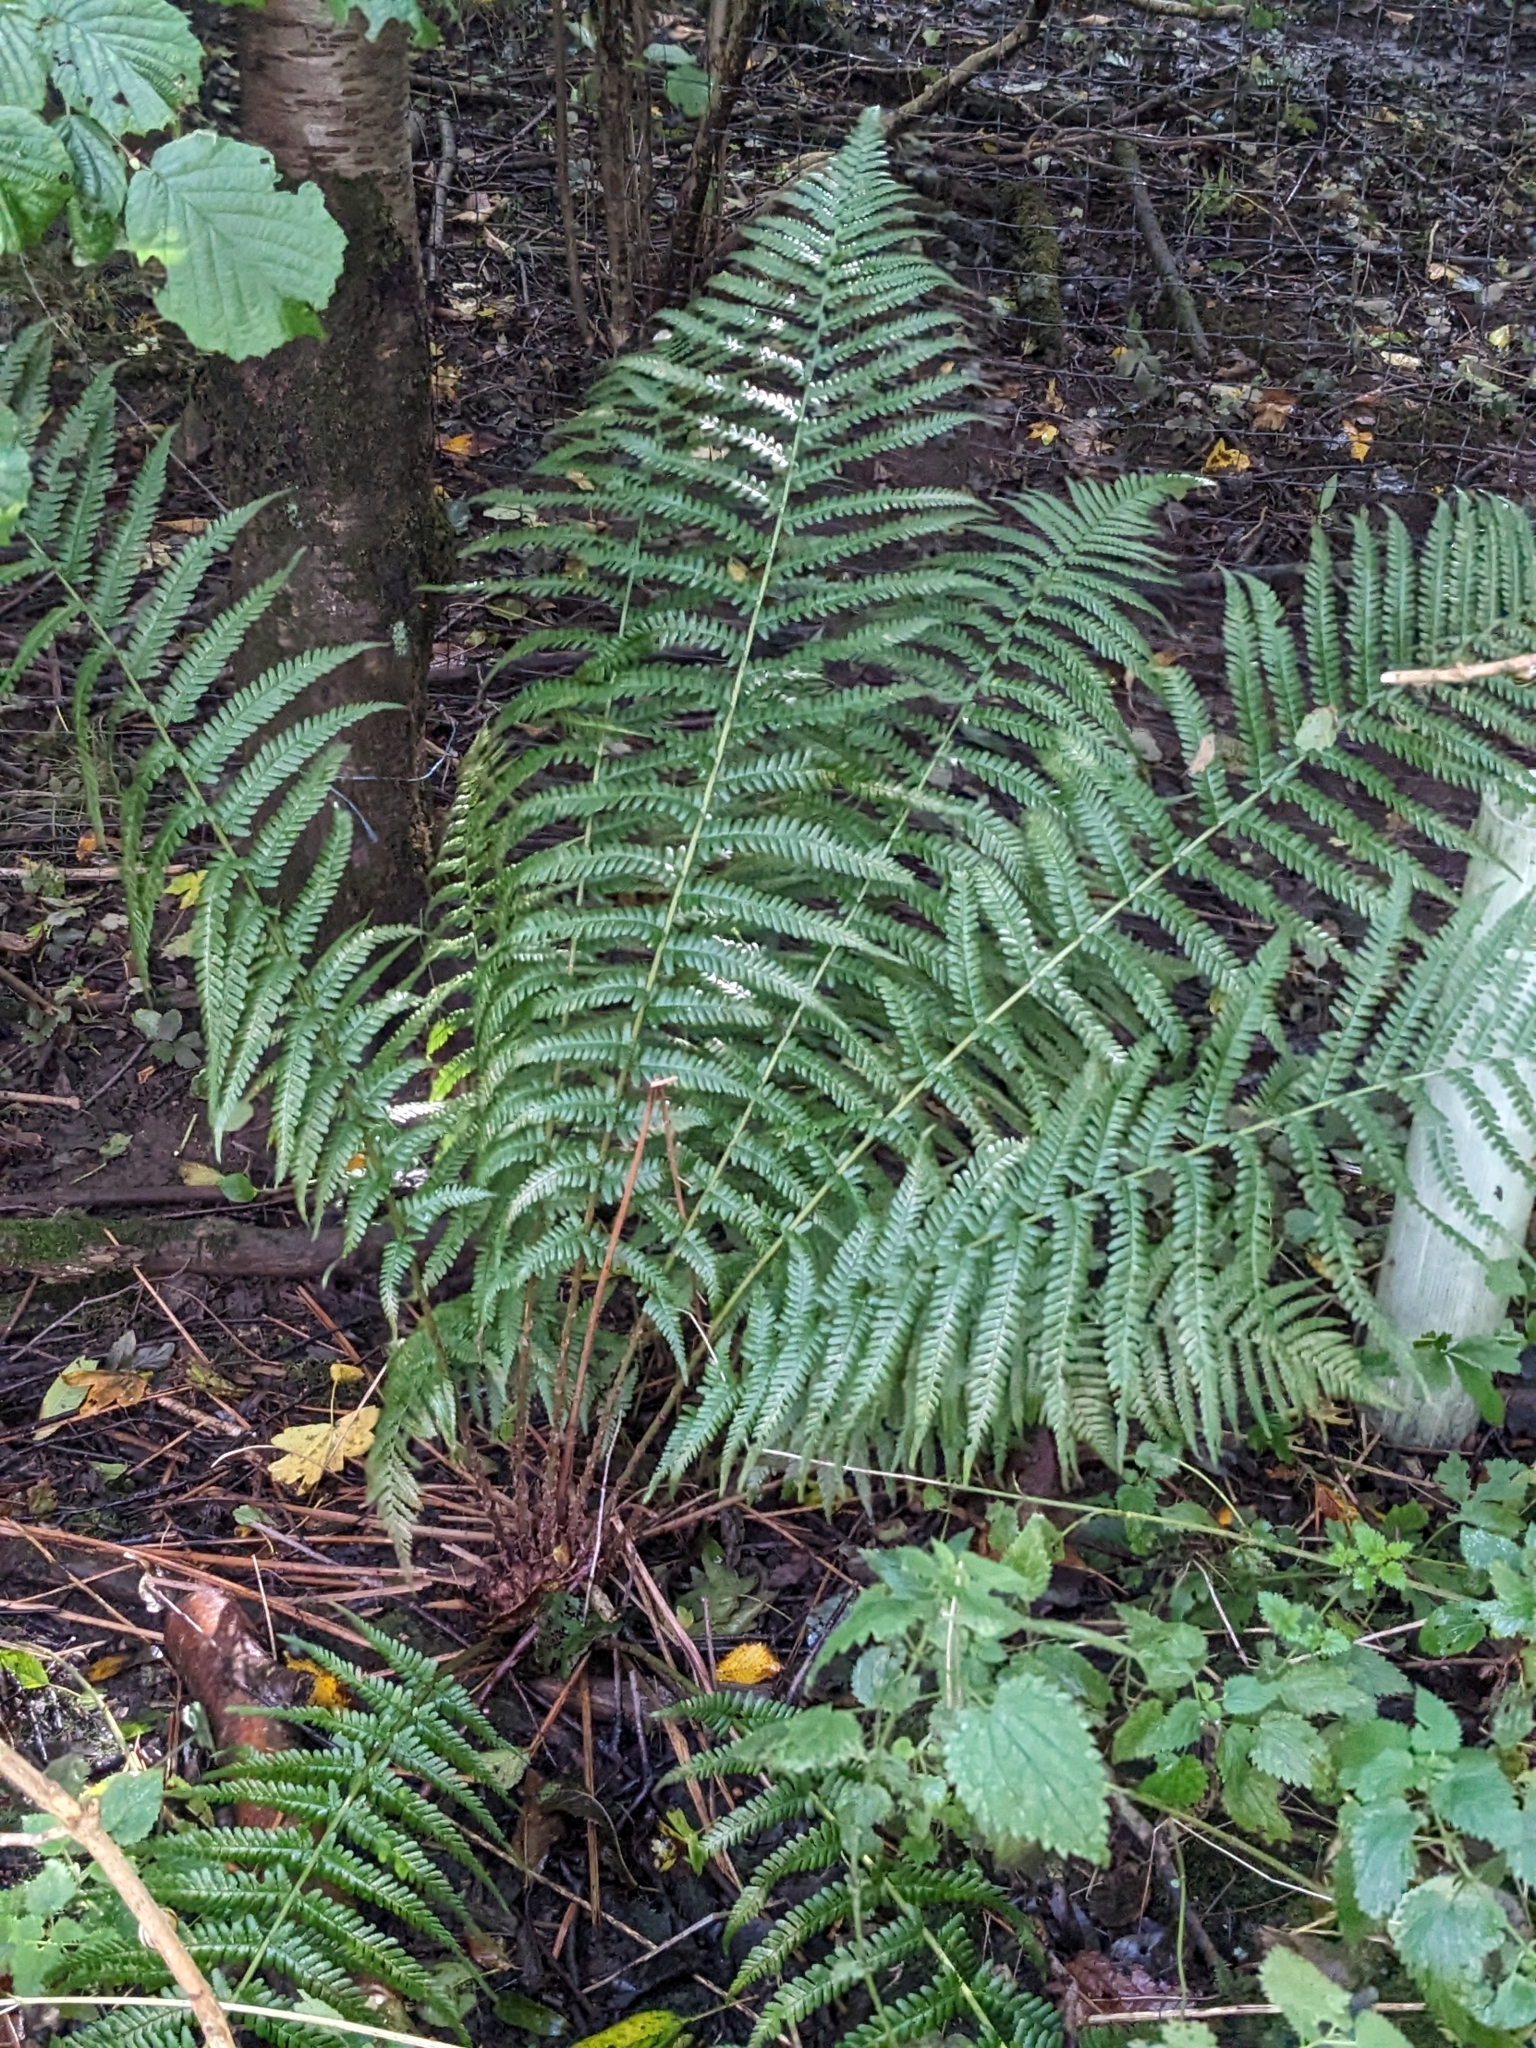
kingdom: Plantae
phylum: Tracheophyta
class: Polypodiopsida
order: Polypodiales
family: Dryopteridaceae
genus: Dryopteris
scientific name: Dryopteris filix-mas
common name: Male fern
